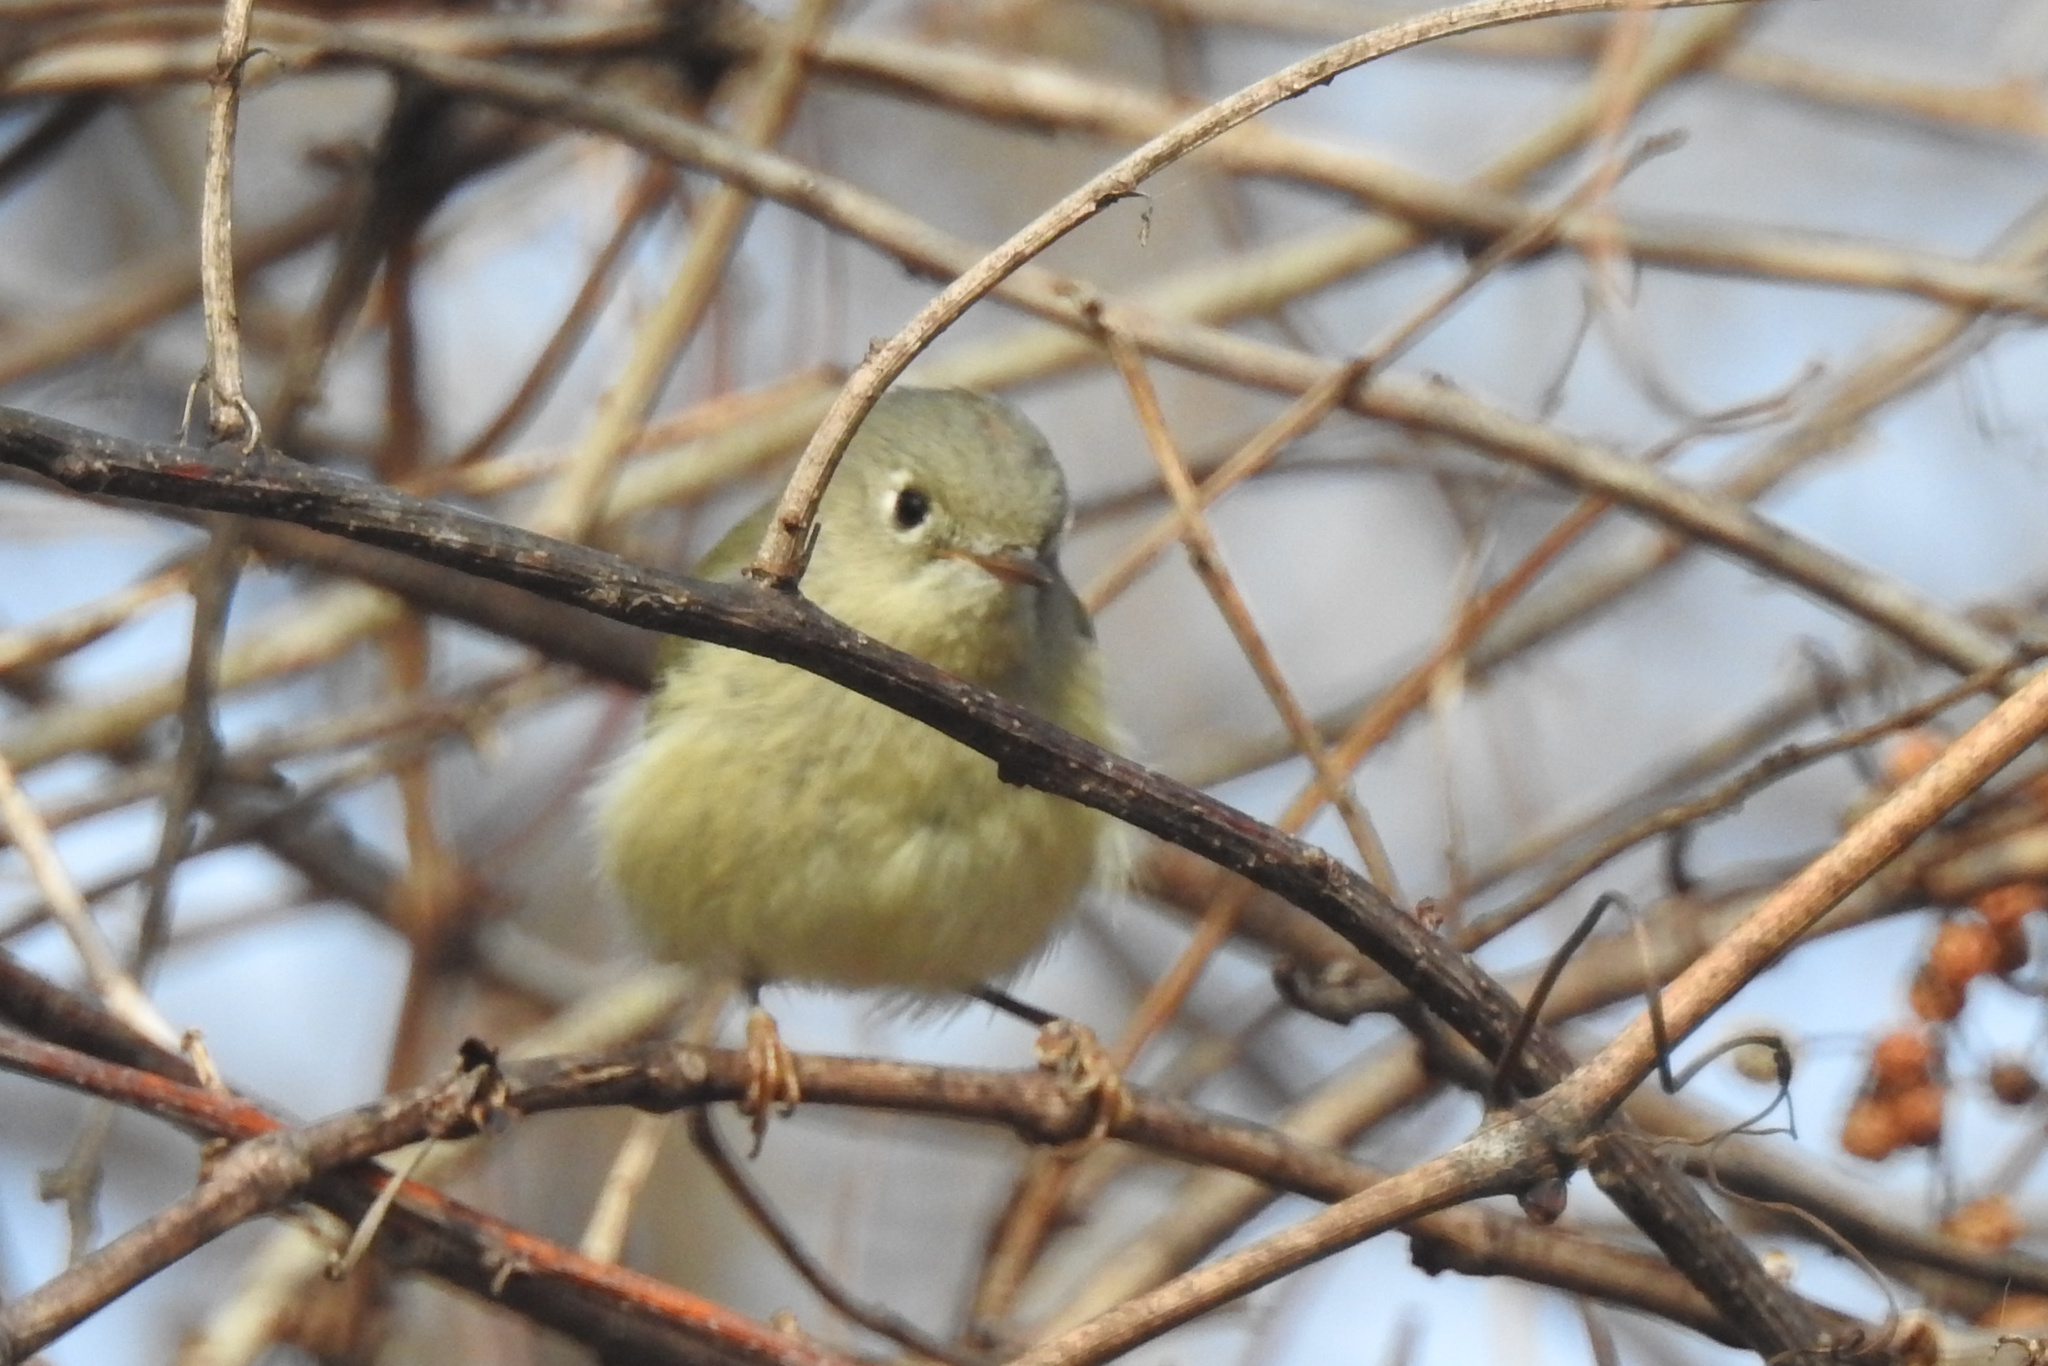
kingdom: Animalia
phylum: Chordata
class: Aves
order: Passeriformes
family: Regulidae
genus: Regulus
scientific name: Regulus calendula
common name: Ruby-crowned kinglet
